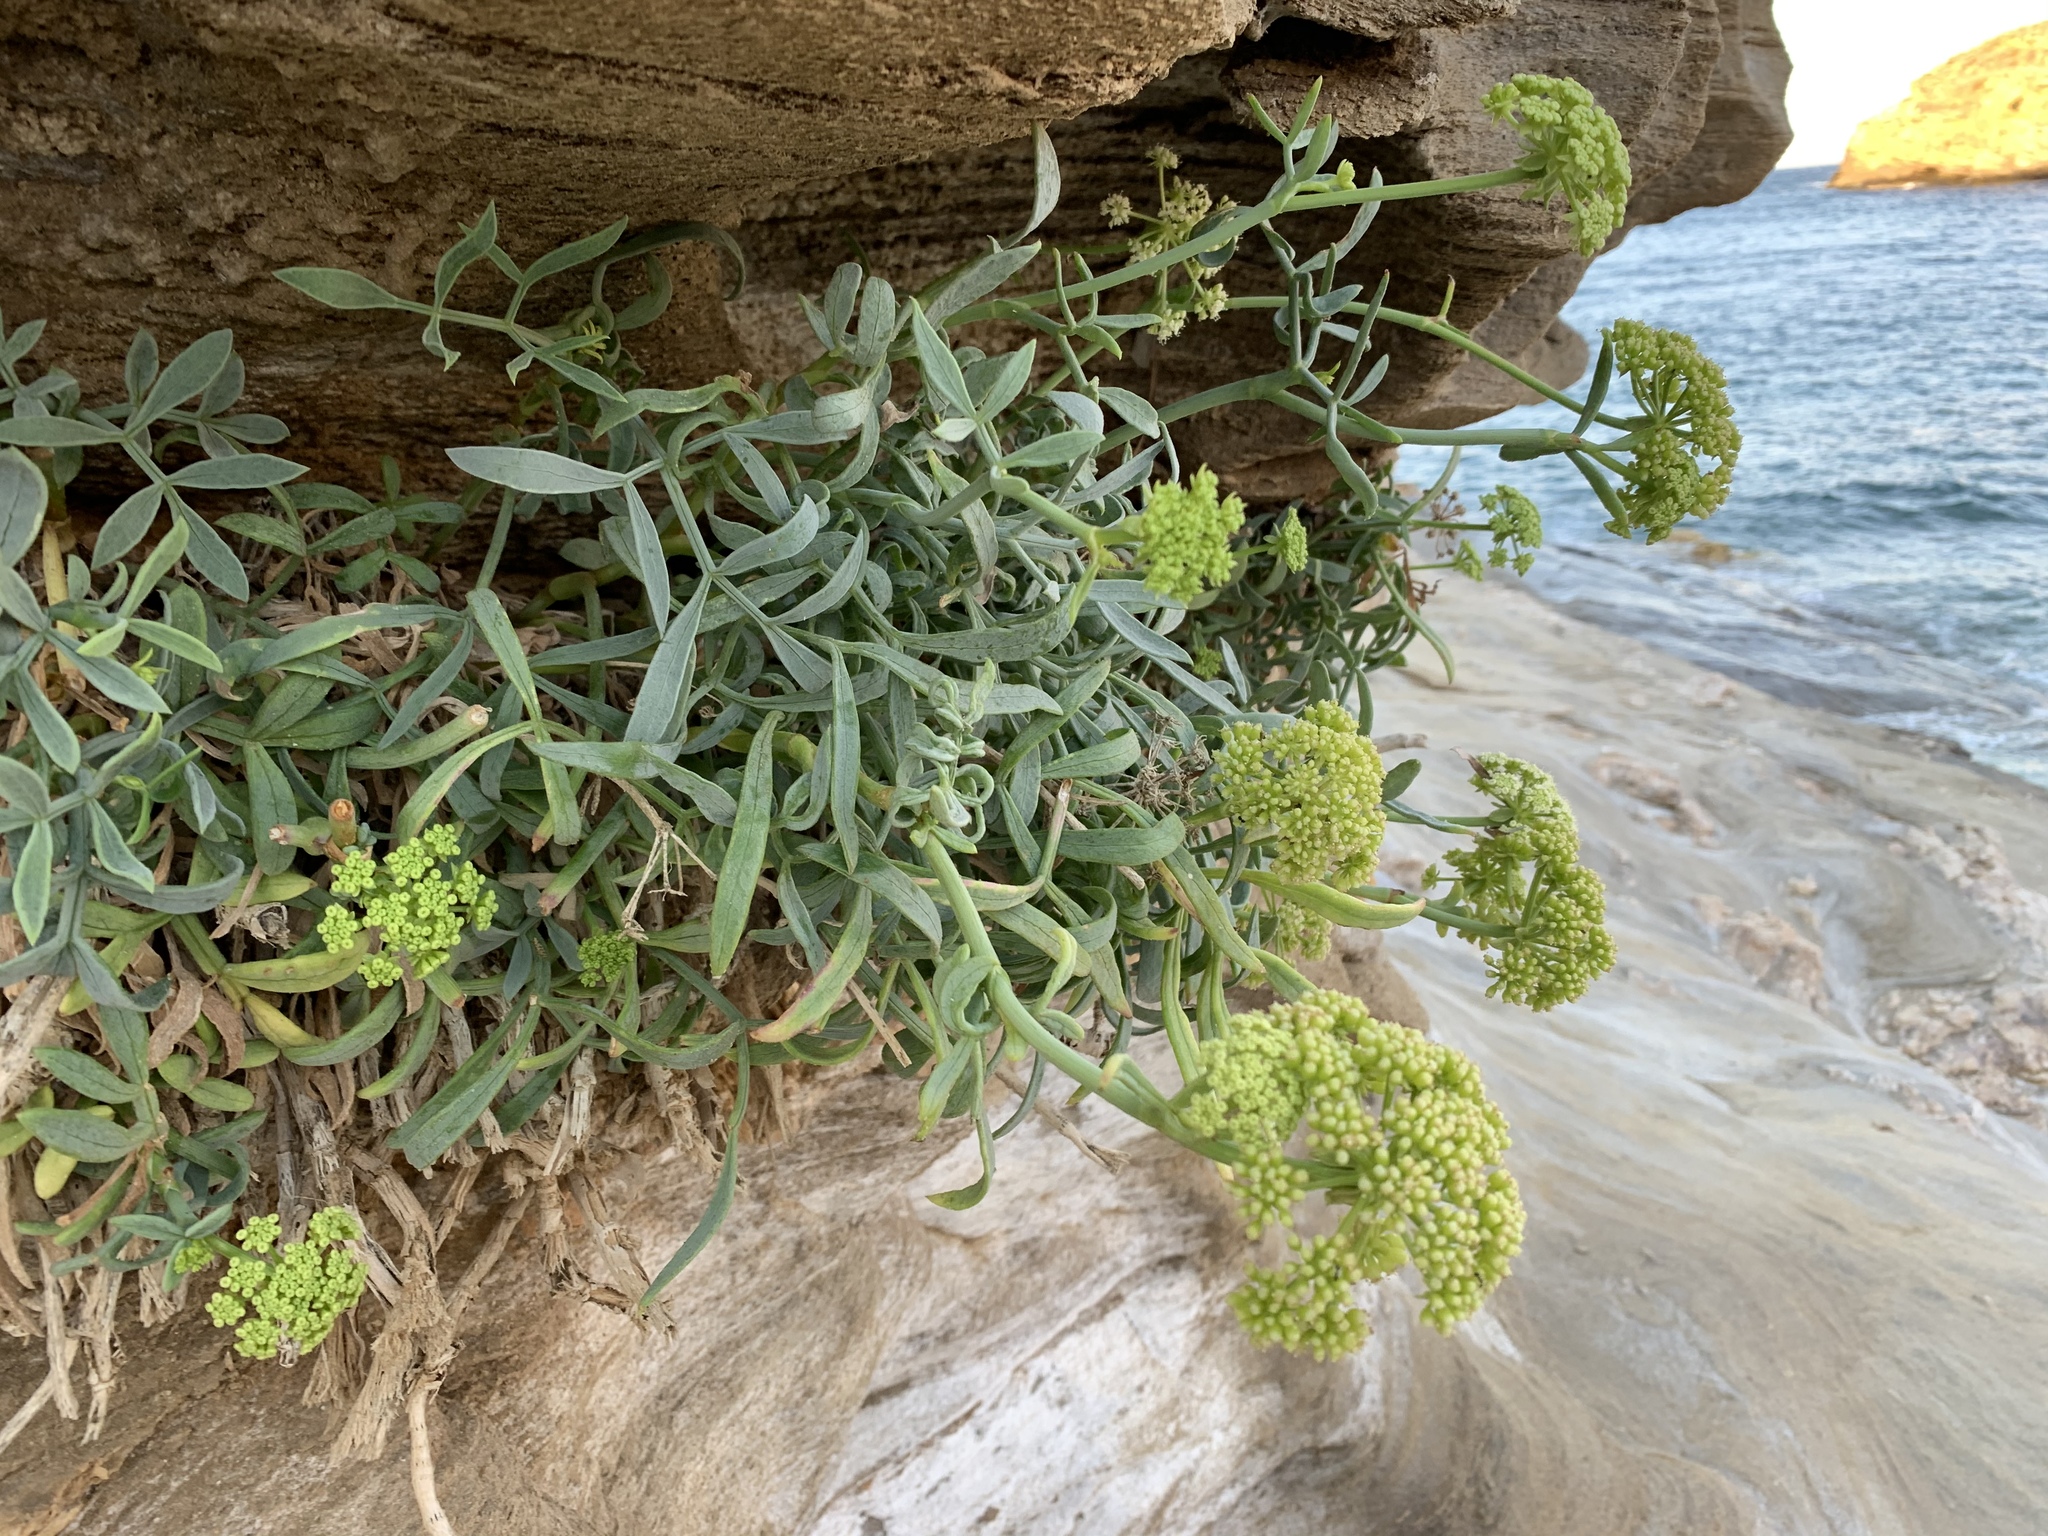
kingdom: Plantae
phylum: Tracheophyta
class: Magnoliopsida
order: Apiales
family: Apiaceae
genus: Crithmum
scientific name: Crithmum maritimum
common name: Rock samphire
